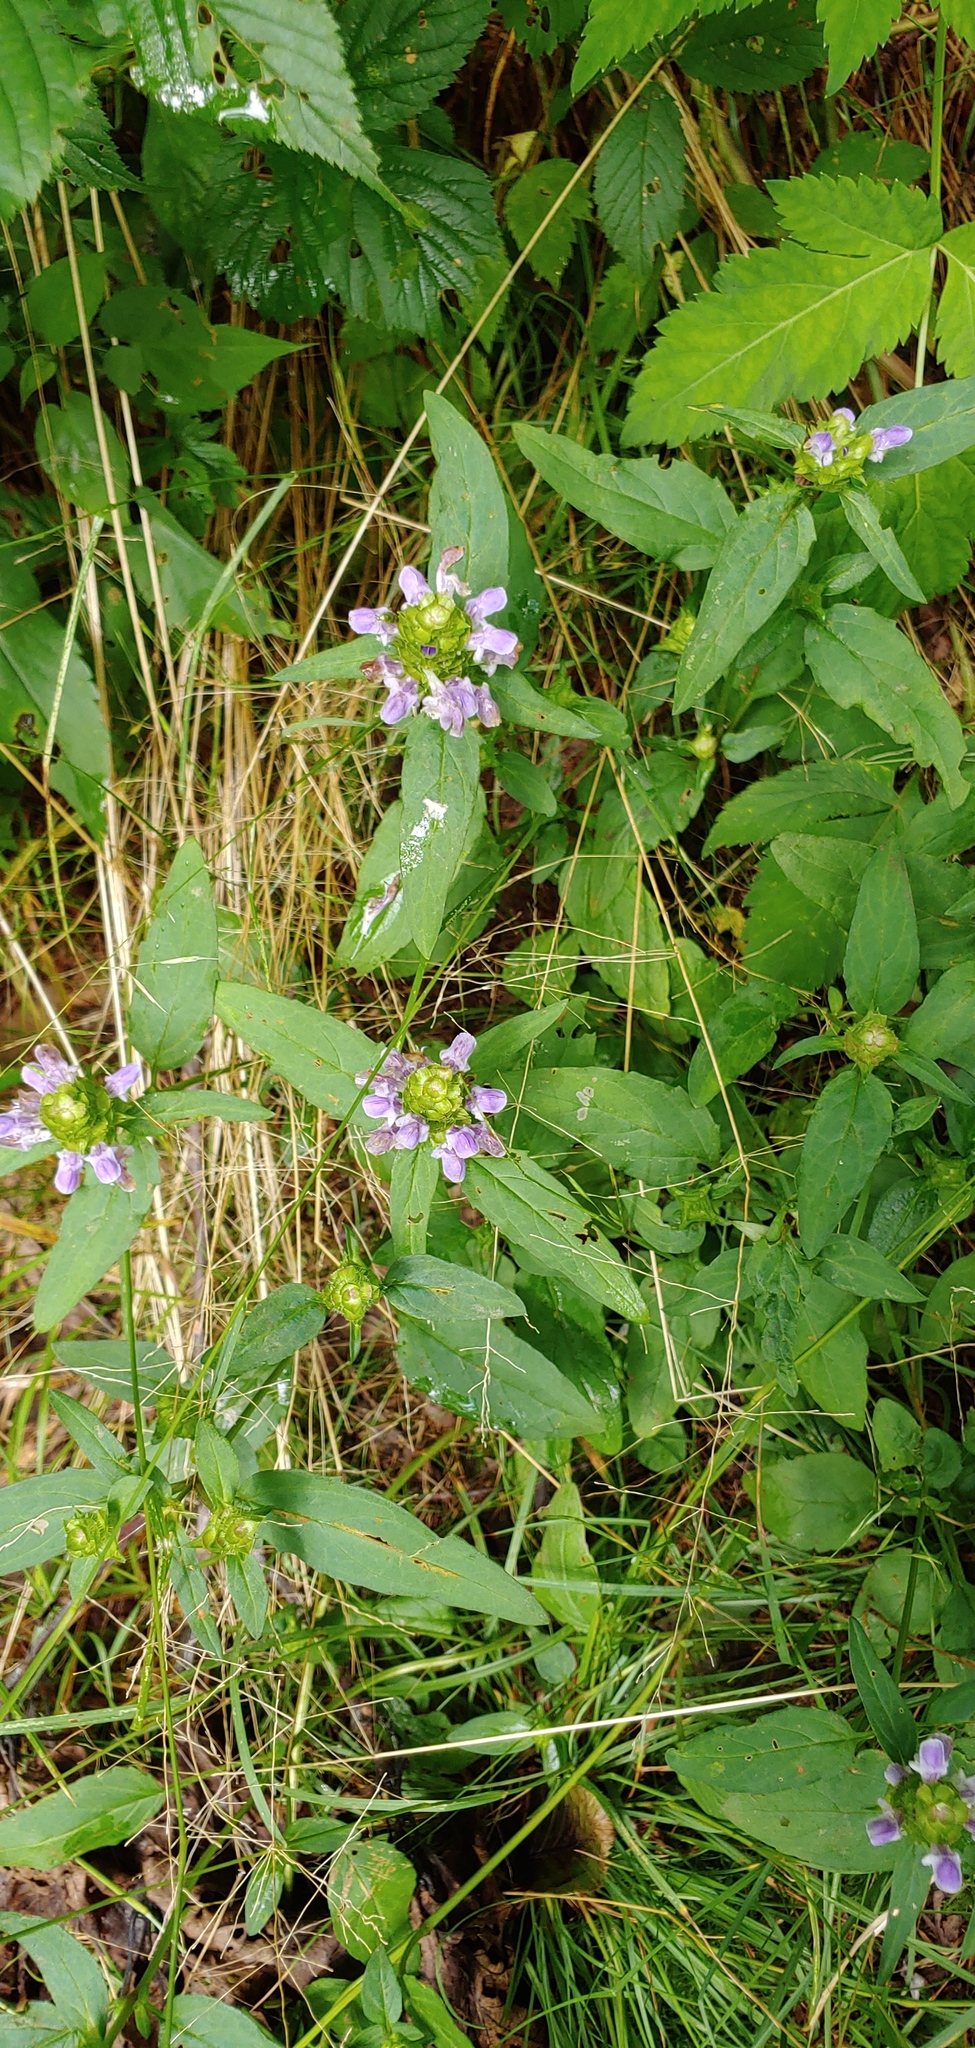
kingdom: Plantae
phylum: Tracheophyta
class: Magnoliopsida
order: Lamiales
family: Lamiaceae
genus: Prunella
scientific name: Prunella vulgaris
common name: Heal-all
